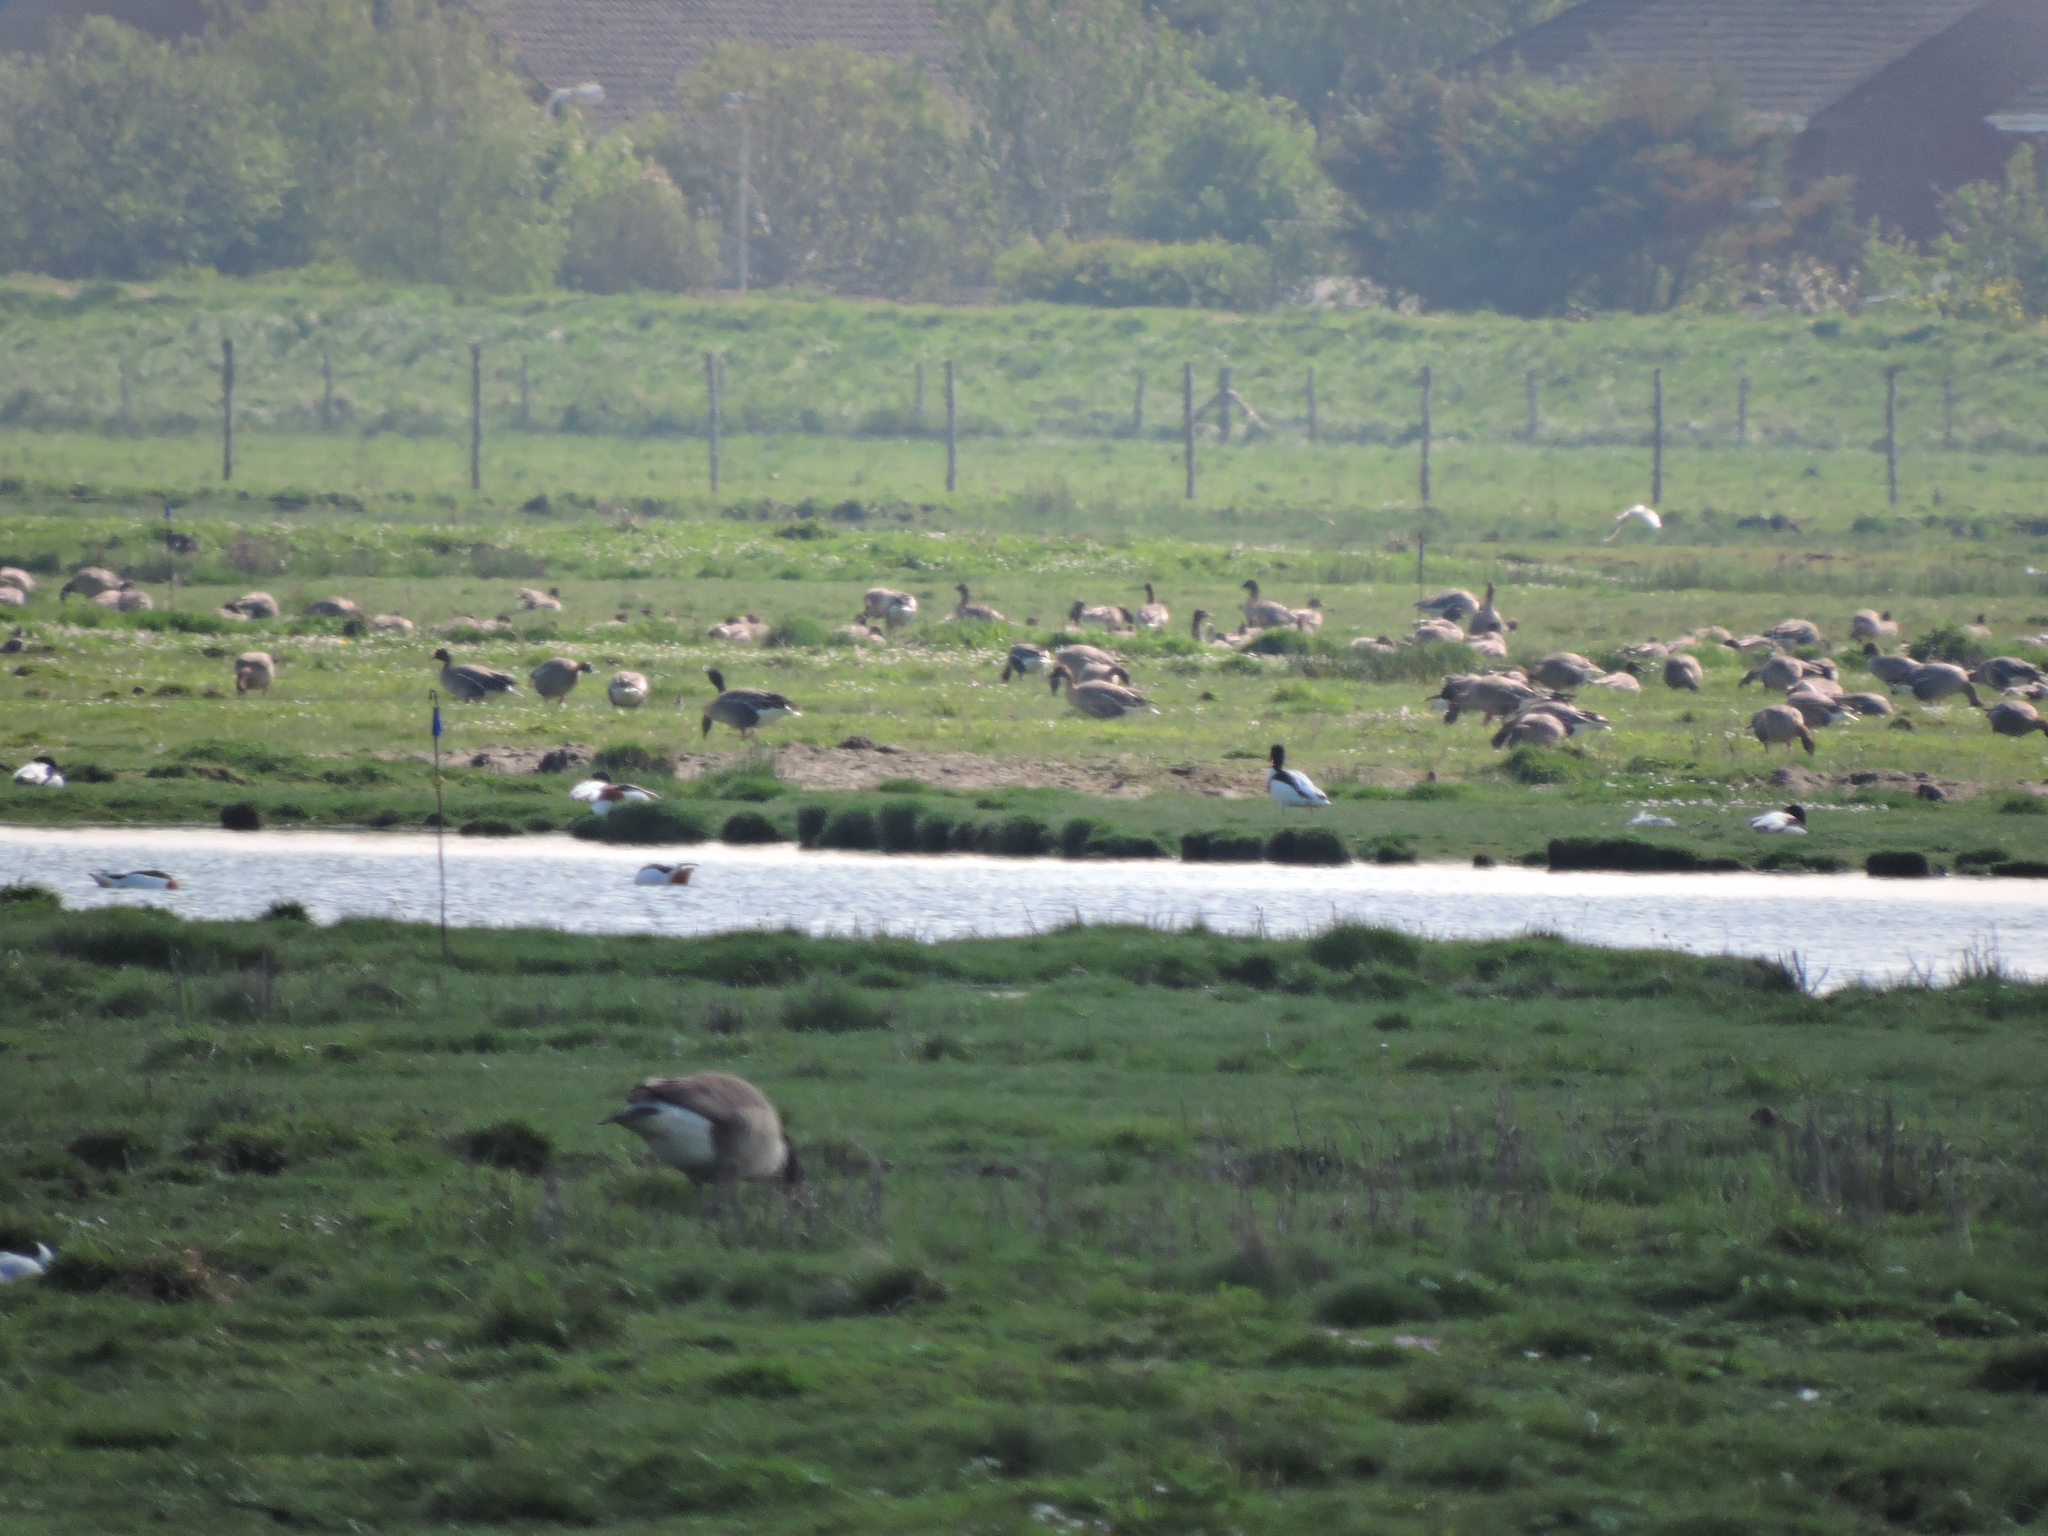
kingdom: Animalia
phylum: Chordata
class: Aves
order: Anseriformes
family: Anatidae
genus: Branta
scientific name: Branta canadensis
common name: Canada goose
